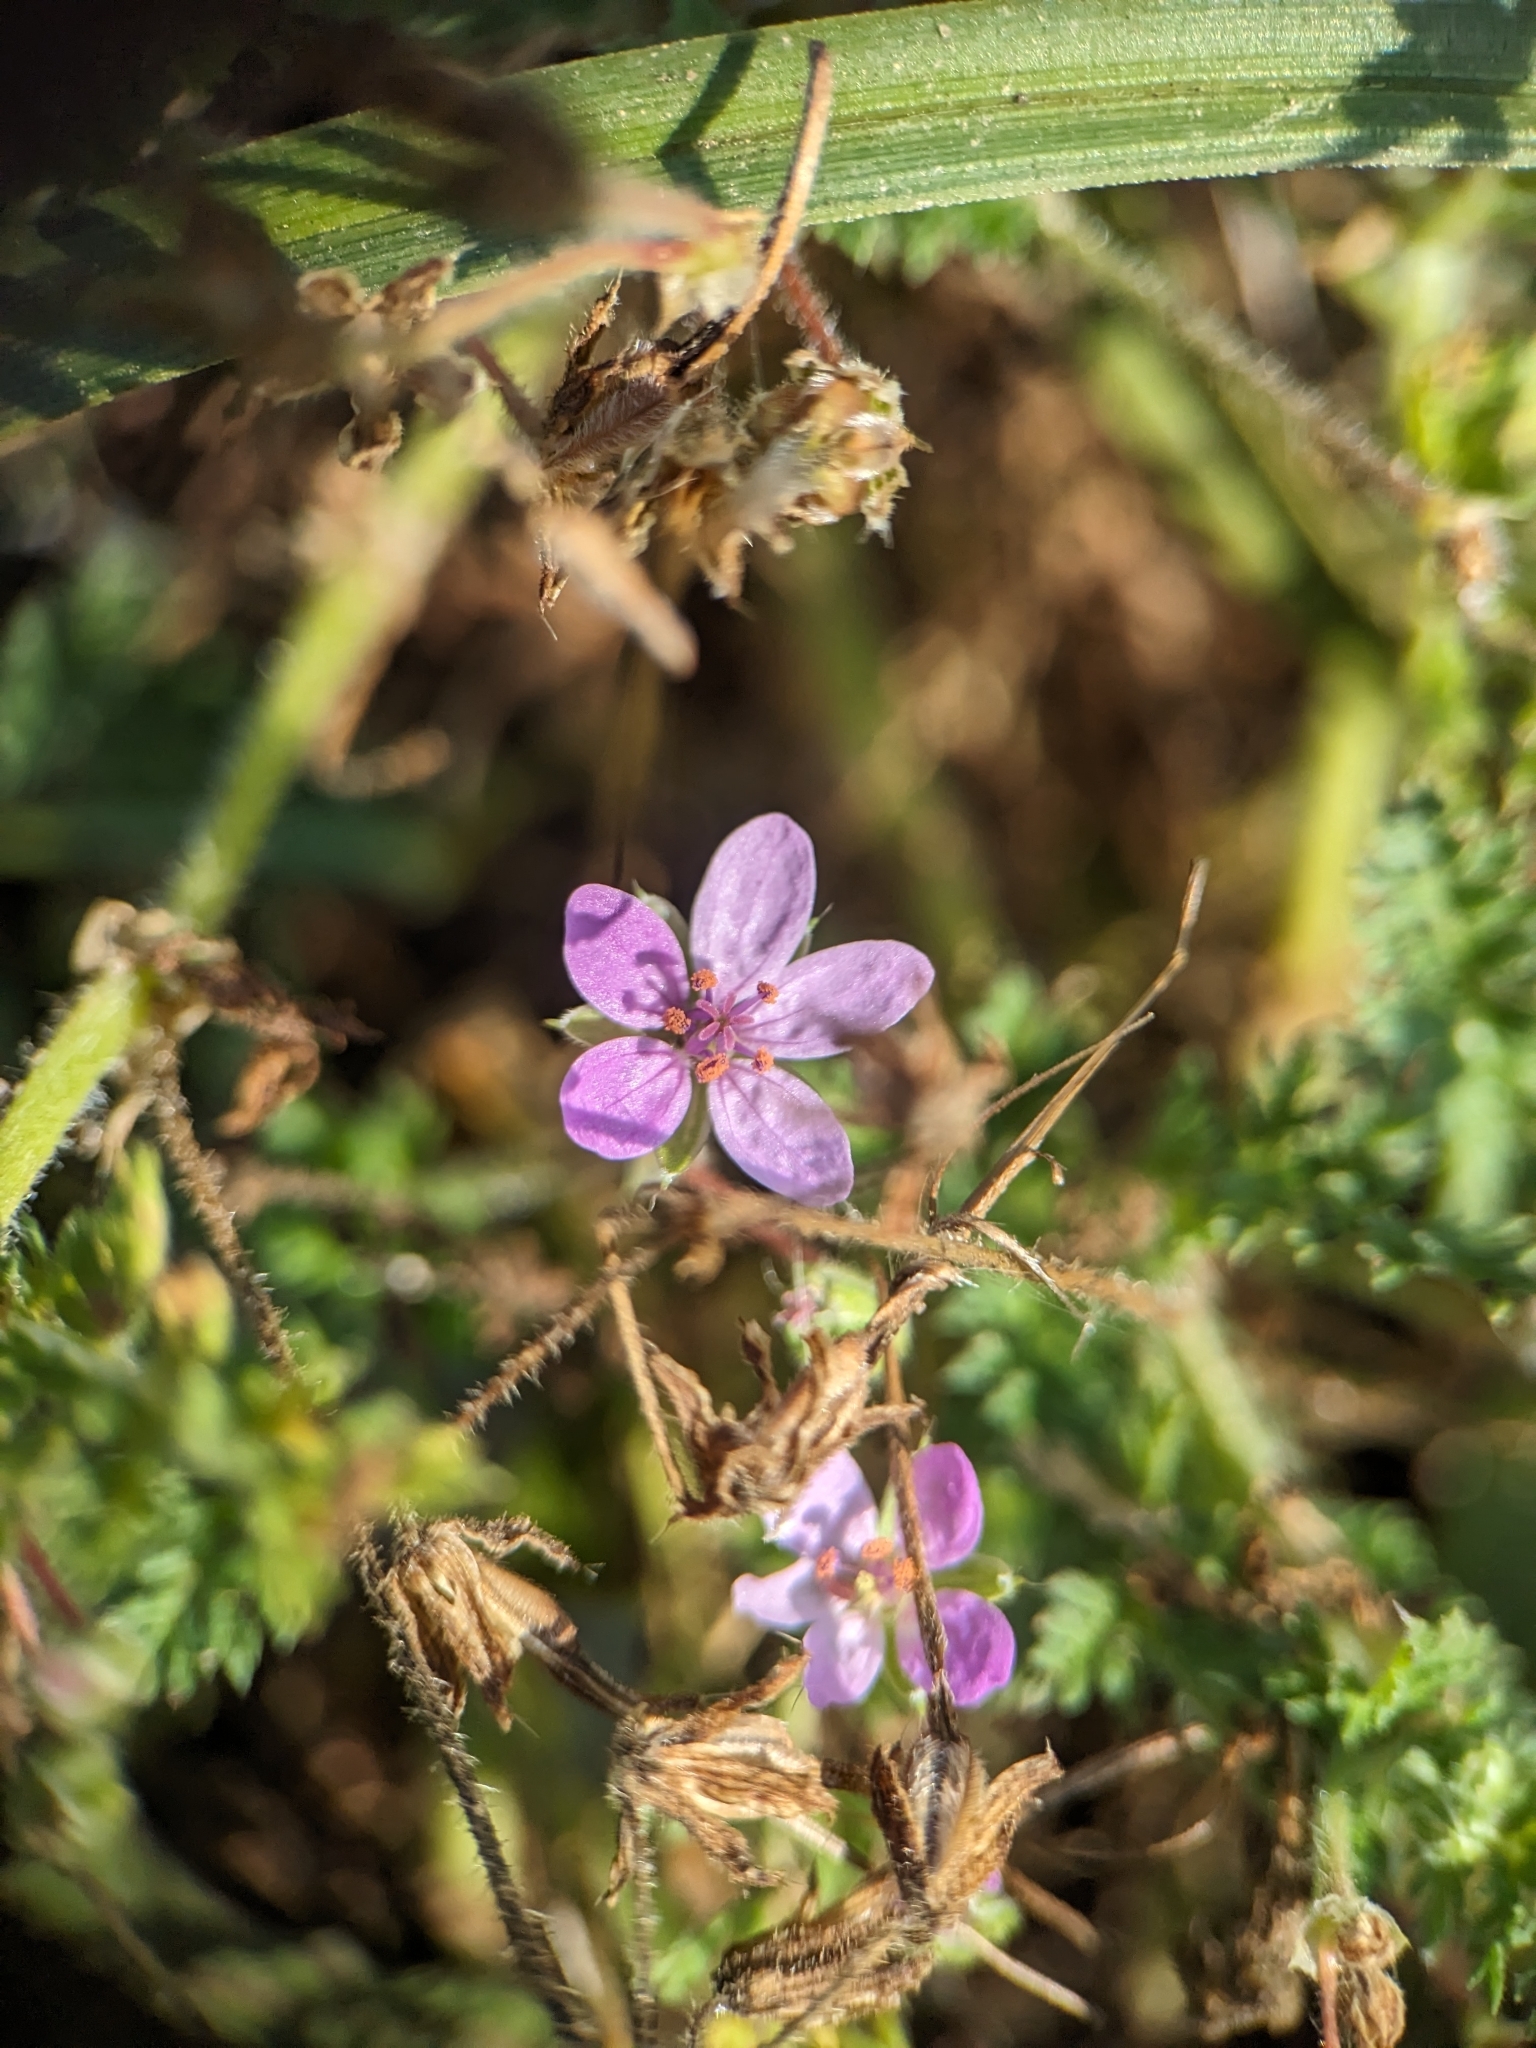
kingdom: Plantae
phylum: Tracheophyta
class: Magnoliopsida
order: Geraniales
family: Geraniaceae
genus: Erodium
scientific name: Erodium cicutarium
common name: Common stork's-bill
